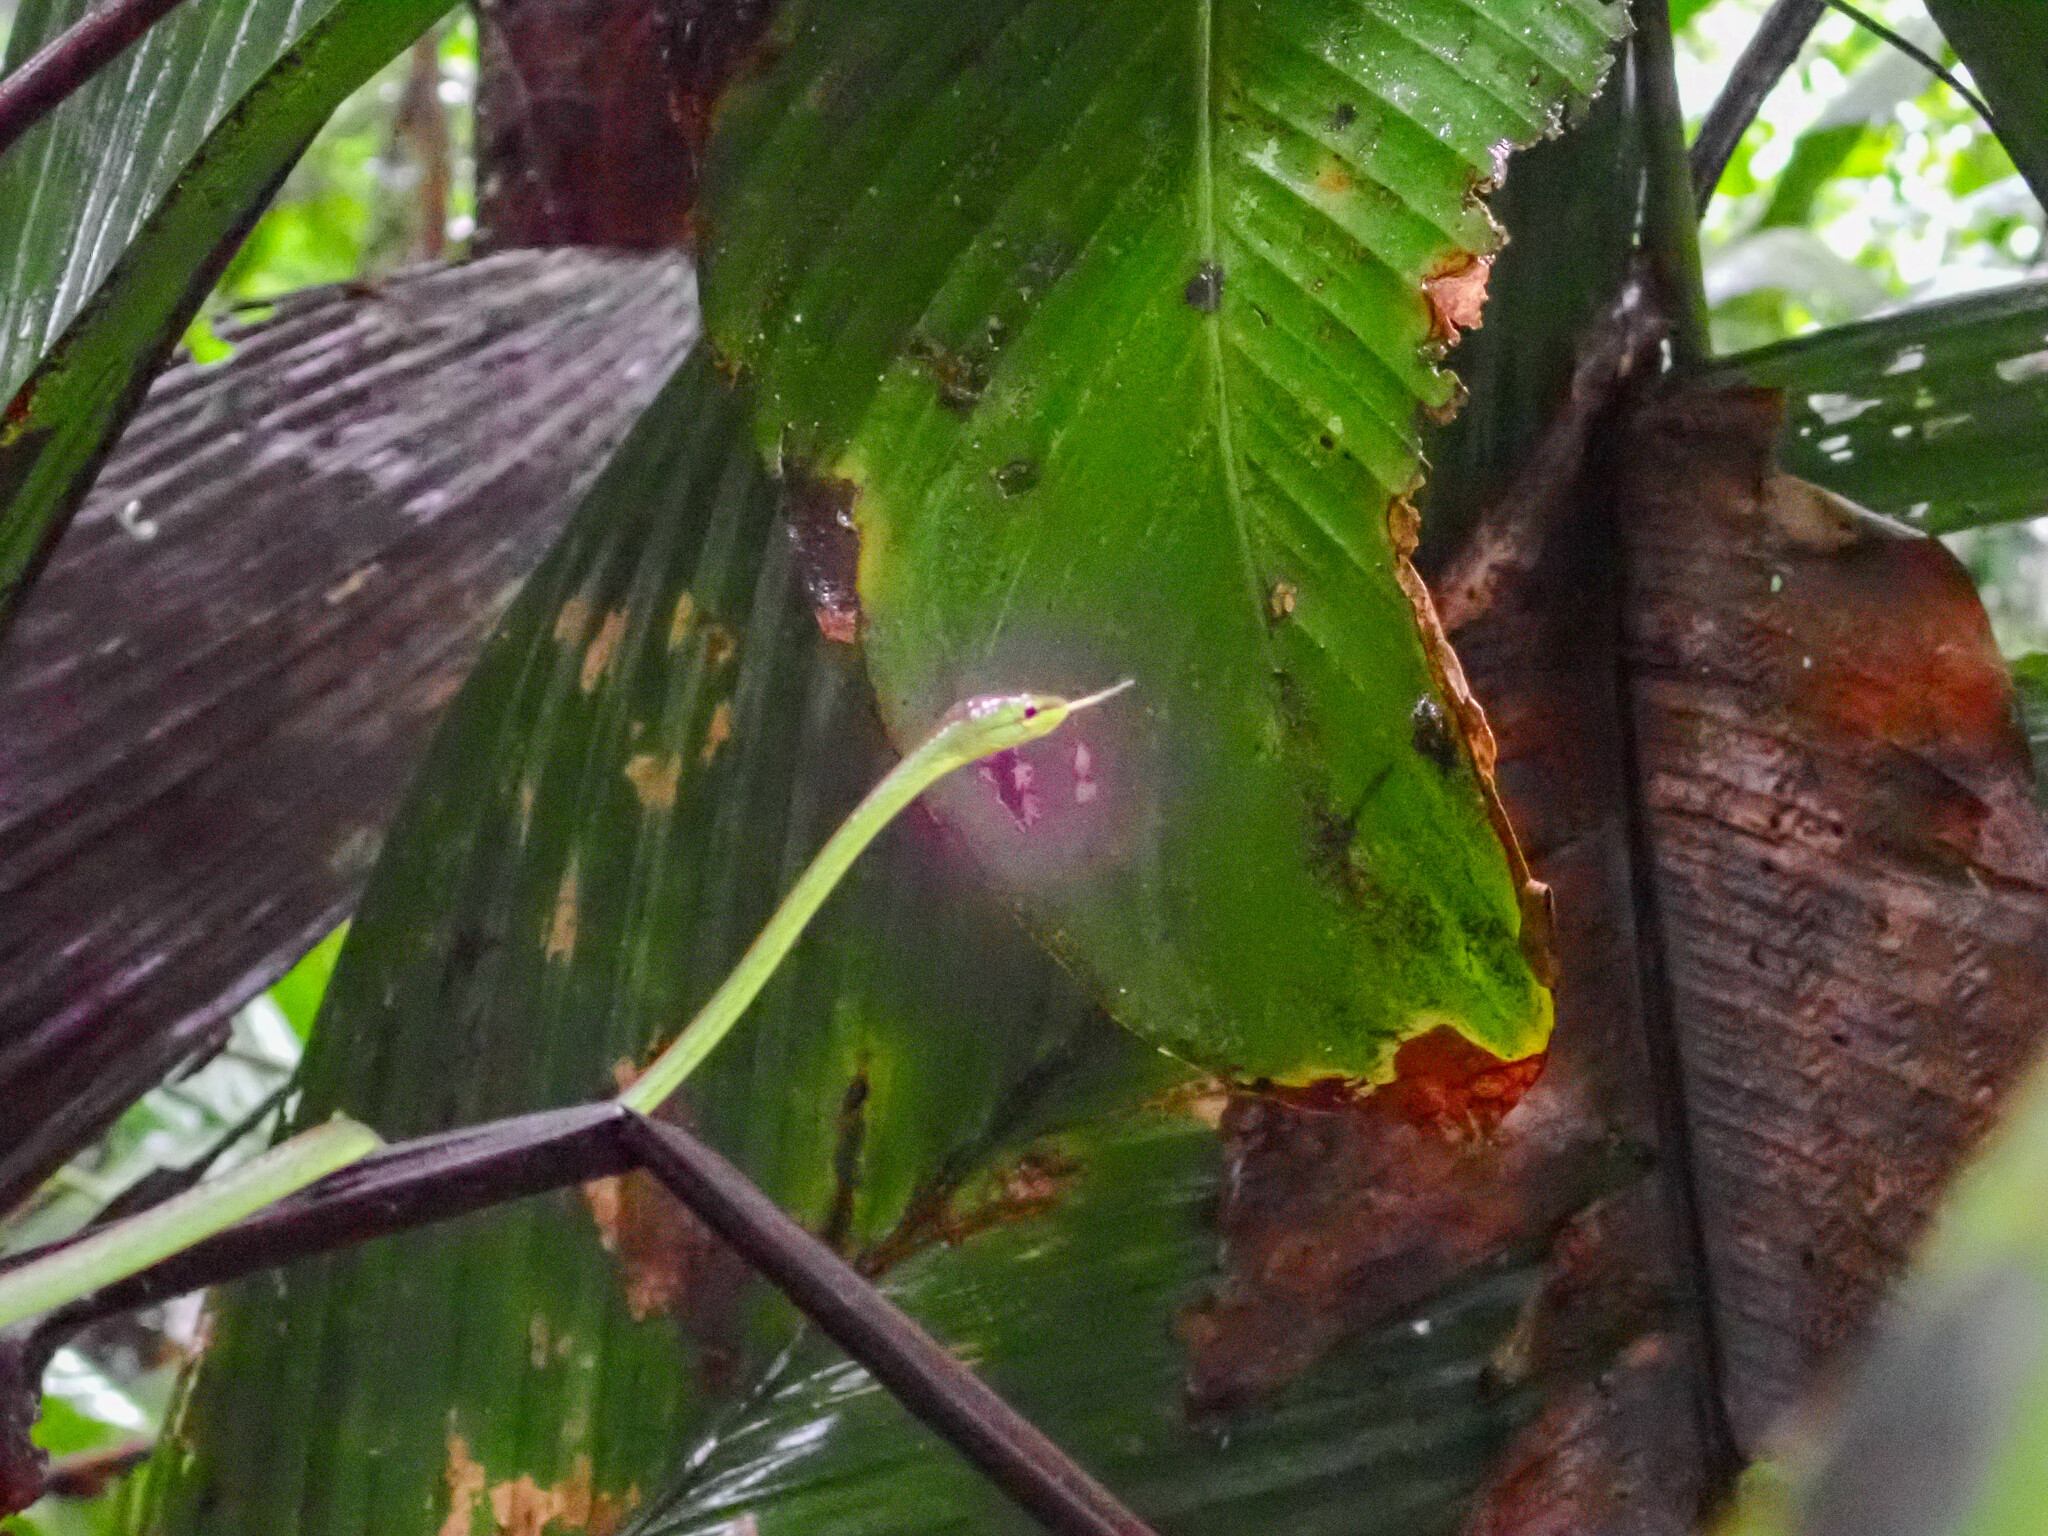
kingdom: Animalia
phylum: Chordata
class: Squamata
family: Colubridae
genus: Oxybelis
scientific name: Oxybelis brevirostris
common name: Cope's vine snake
